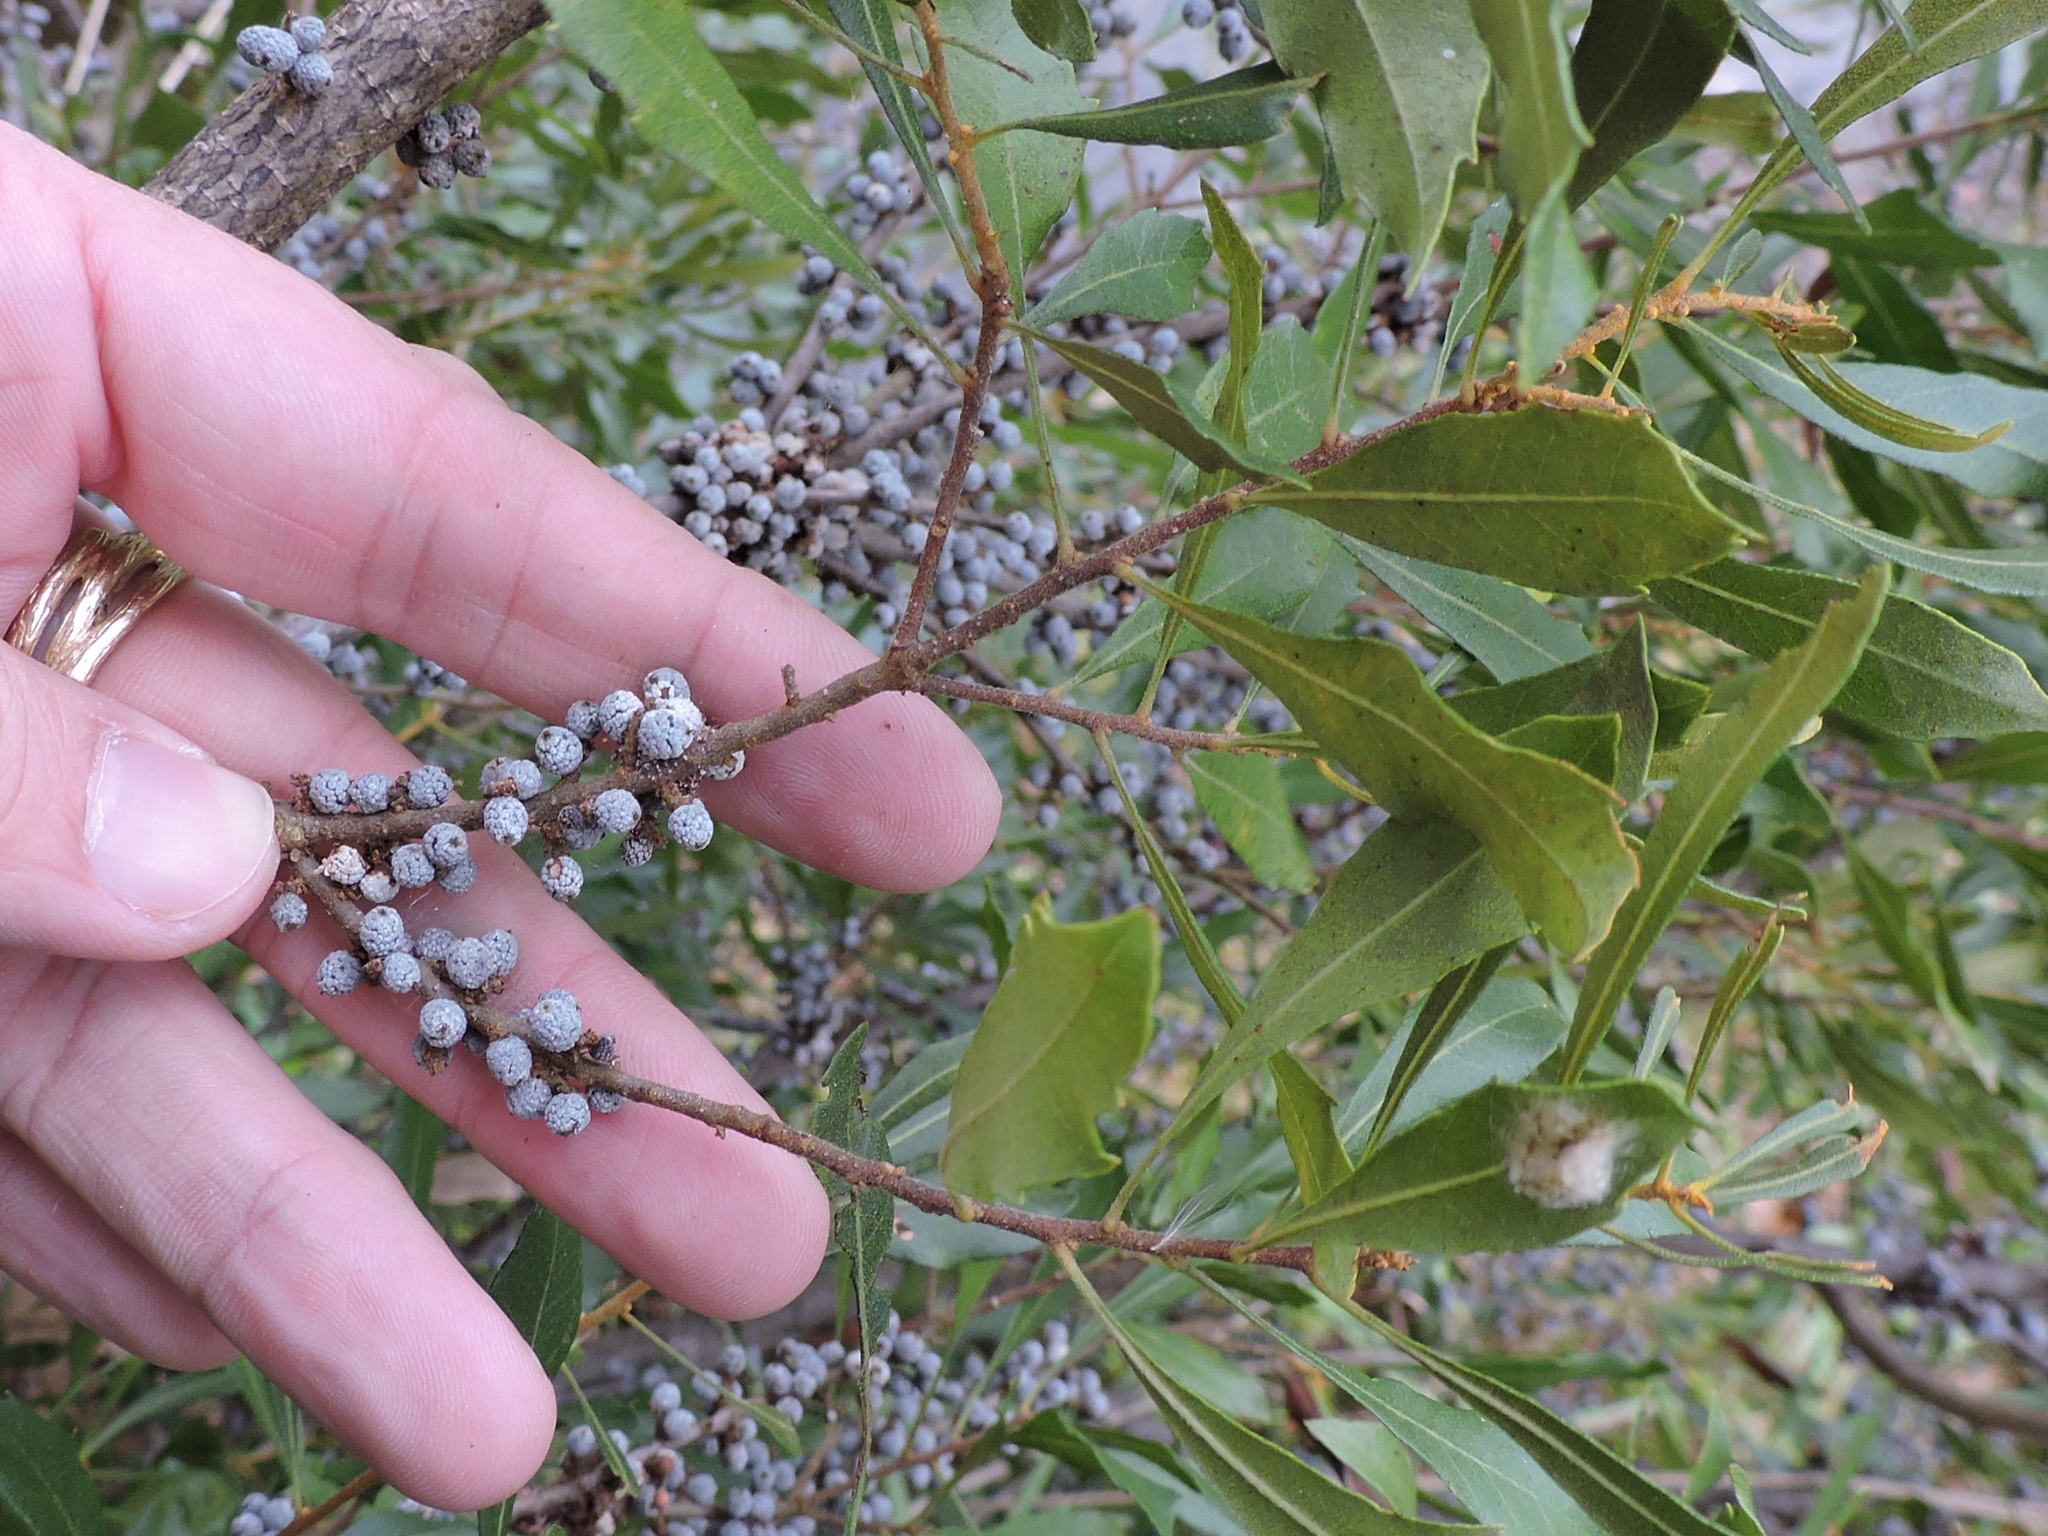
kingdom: Plantae
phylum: Tracheophyta
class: Magnoliopsida
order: Fagales
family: Myricaceae
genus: Morella
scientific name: Morella cerifera
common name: Wax myrtle
